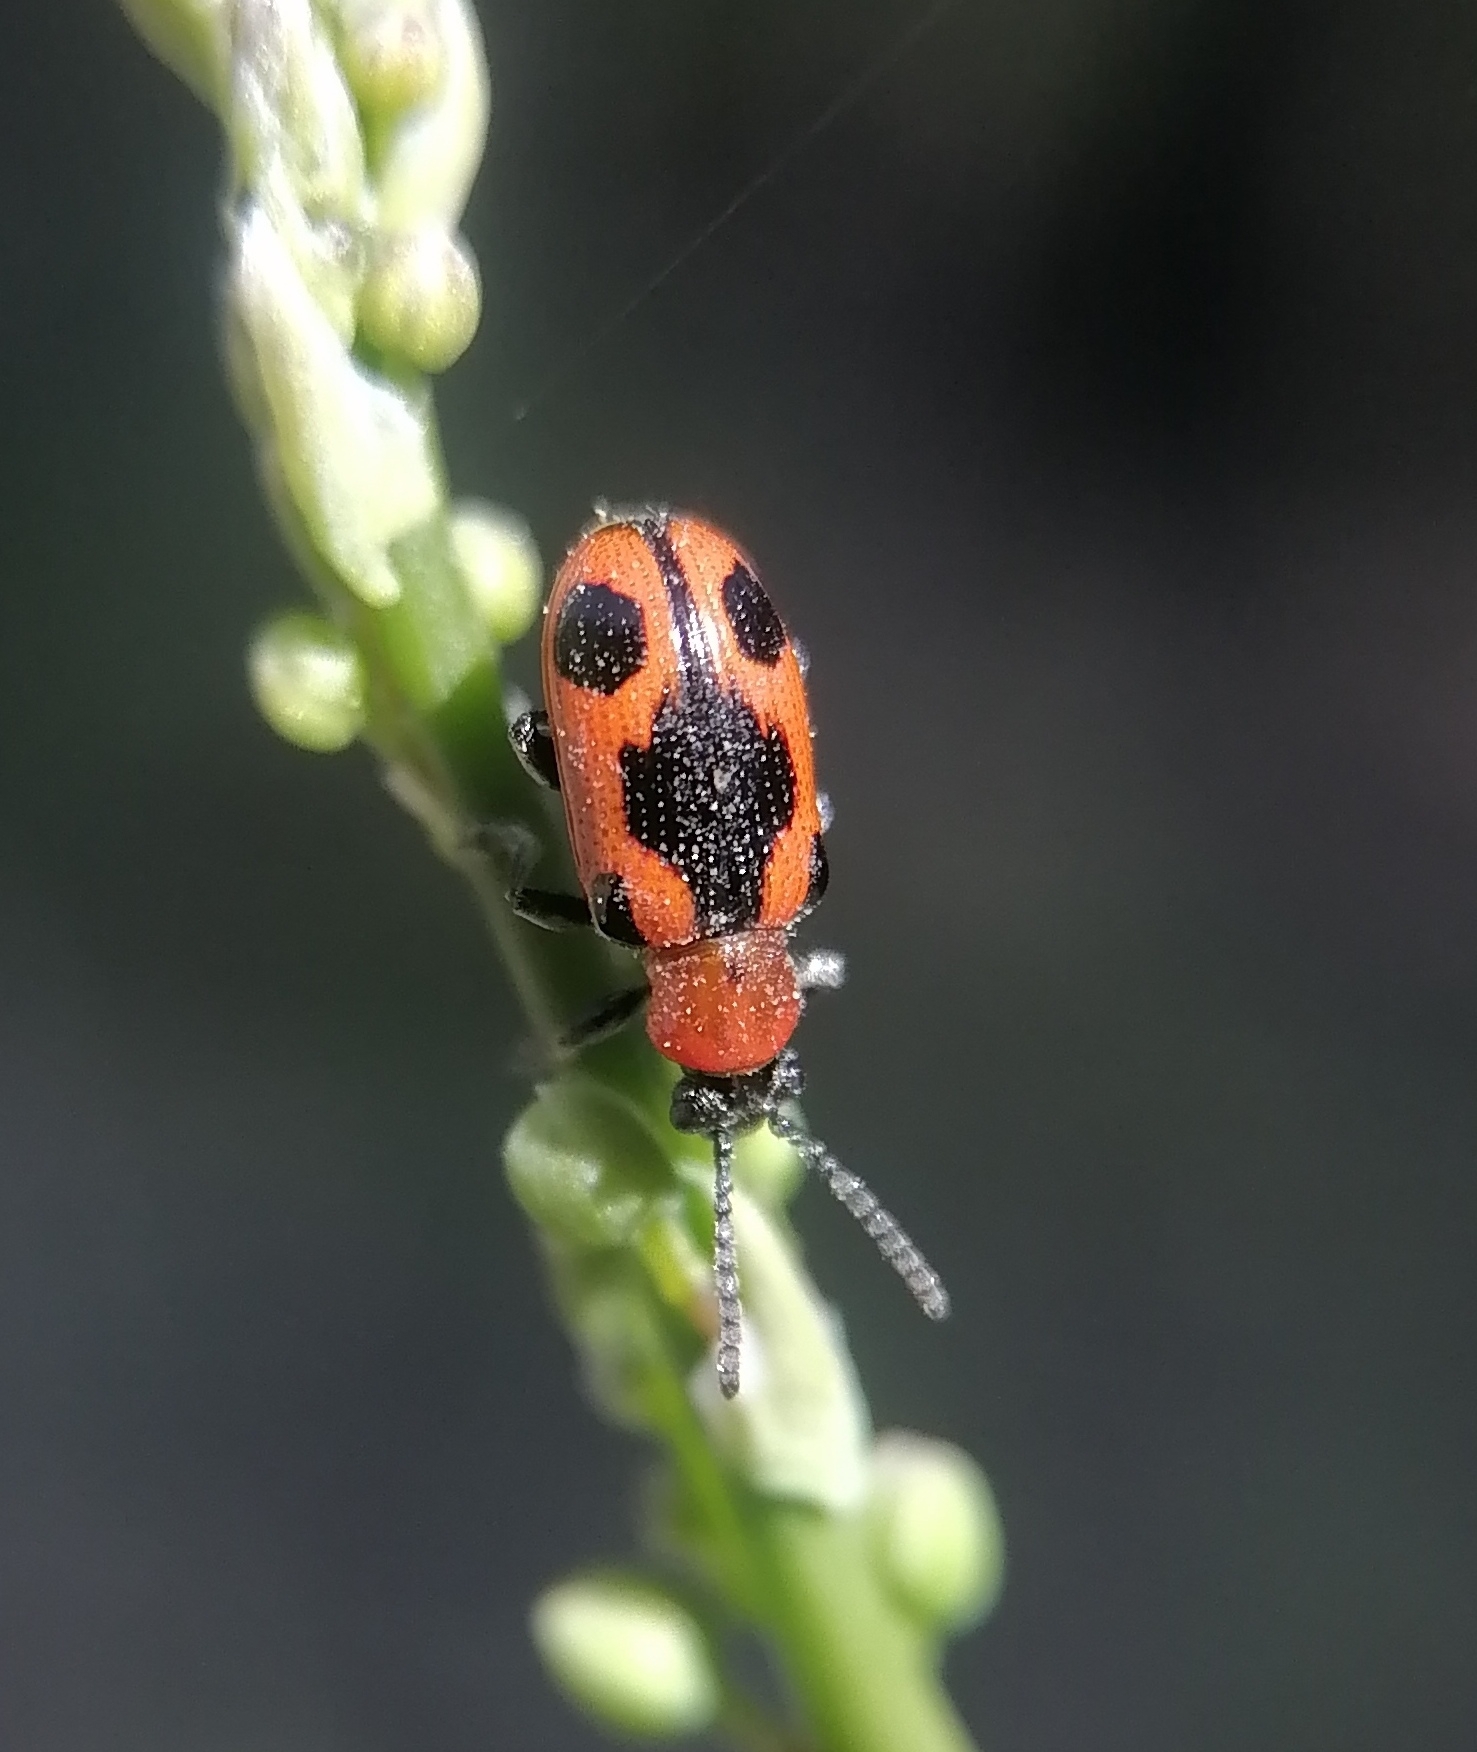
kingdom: Animalia
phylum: Arthropoda
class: Insecta
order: Coleoptera
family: Chrysomelidae
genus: Crioceris
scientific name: Crioceris quinquepunctata
